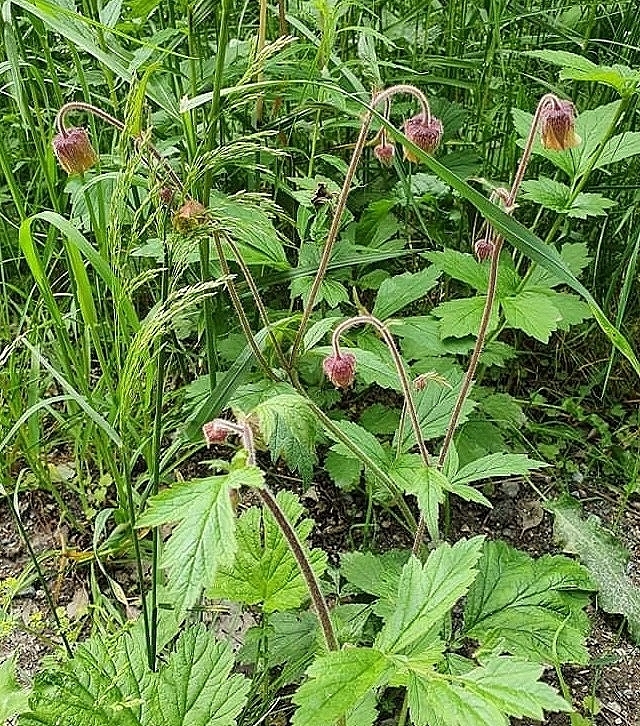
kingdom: Plantae
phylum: Tracheophyta
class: Magnoliopsida
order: Rosales
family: Rosaceae
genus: Geum
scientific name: Geum rivale
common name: Water avens
